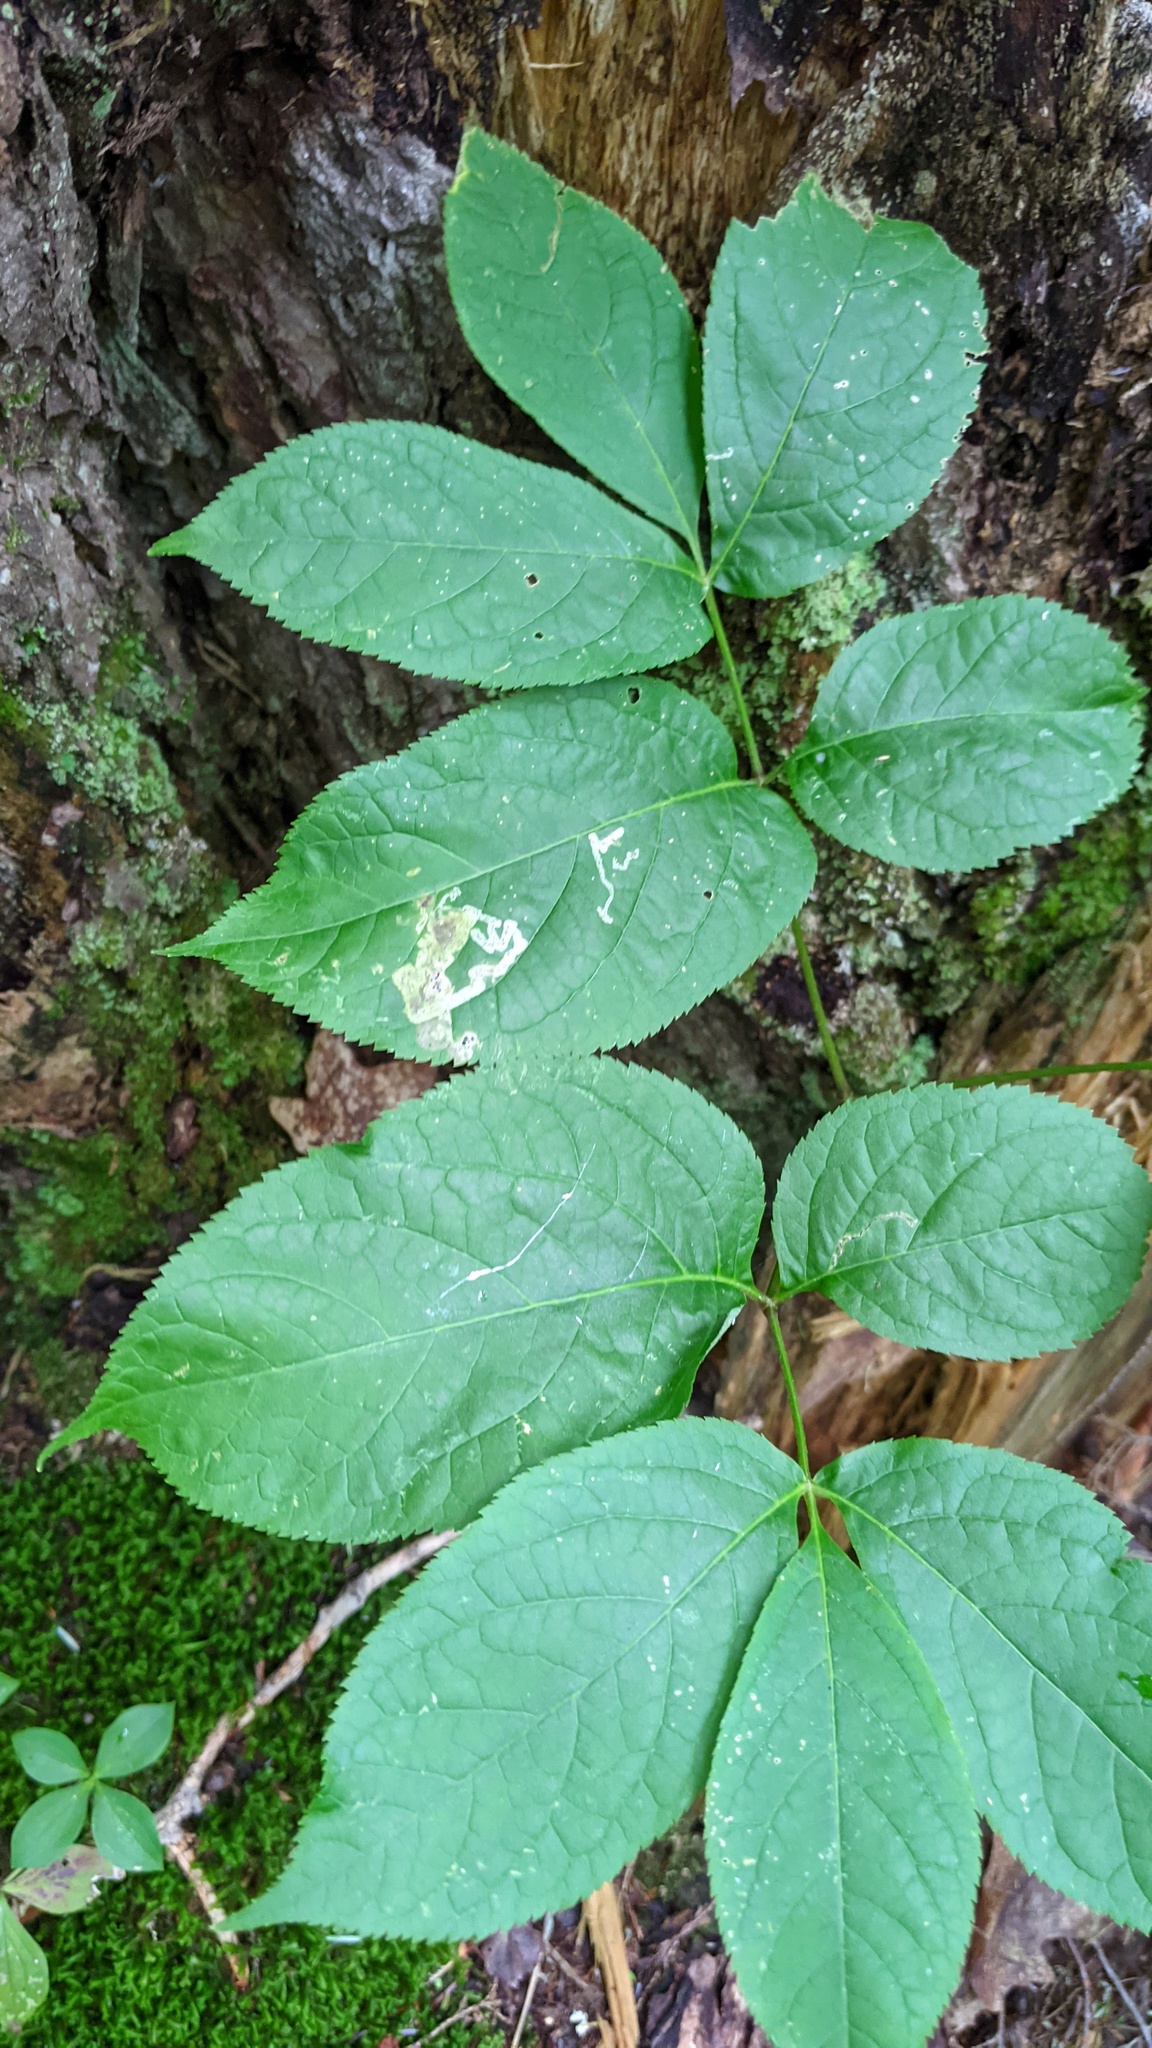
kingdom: Animalia
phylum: Arthropoda
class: Insecta
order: Diptera
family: Agromyzidae
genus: Phytomyza
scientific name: Phytomyza aralivora
